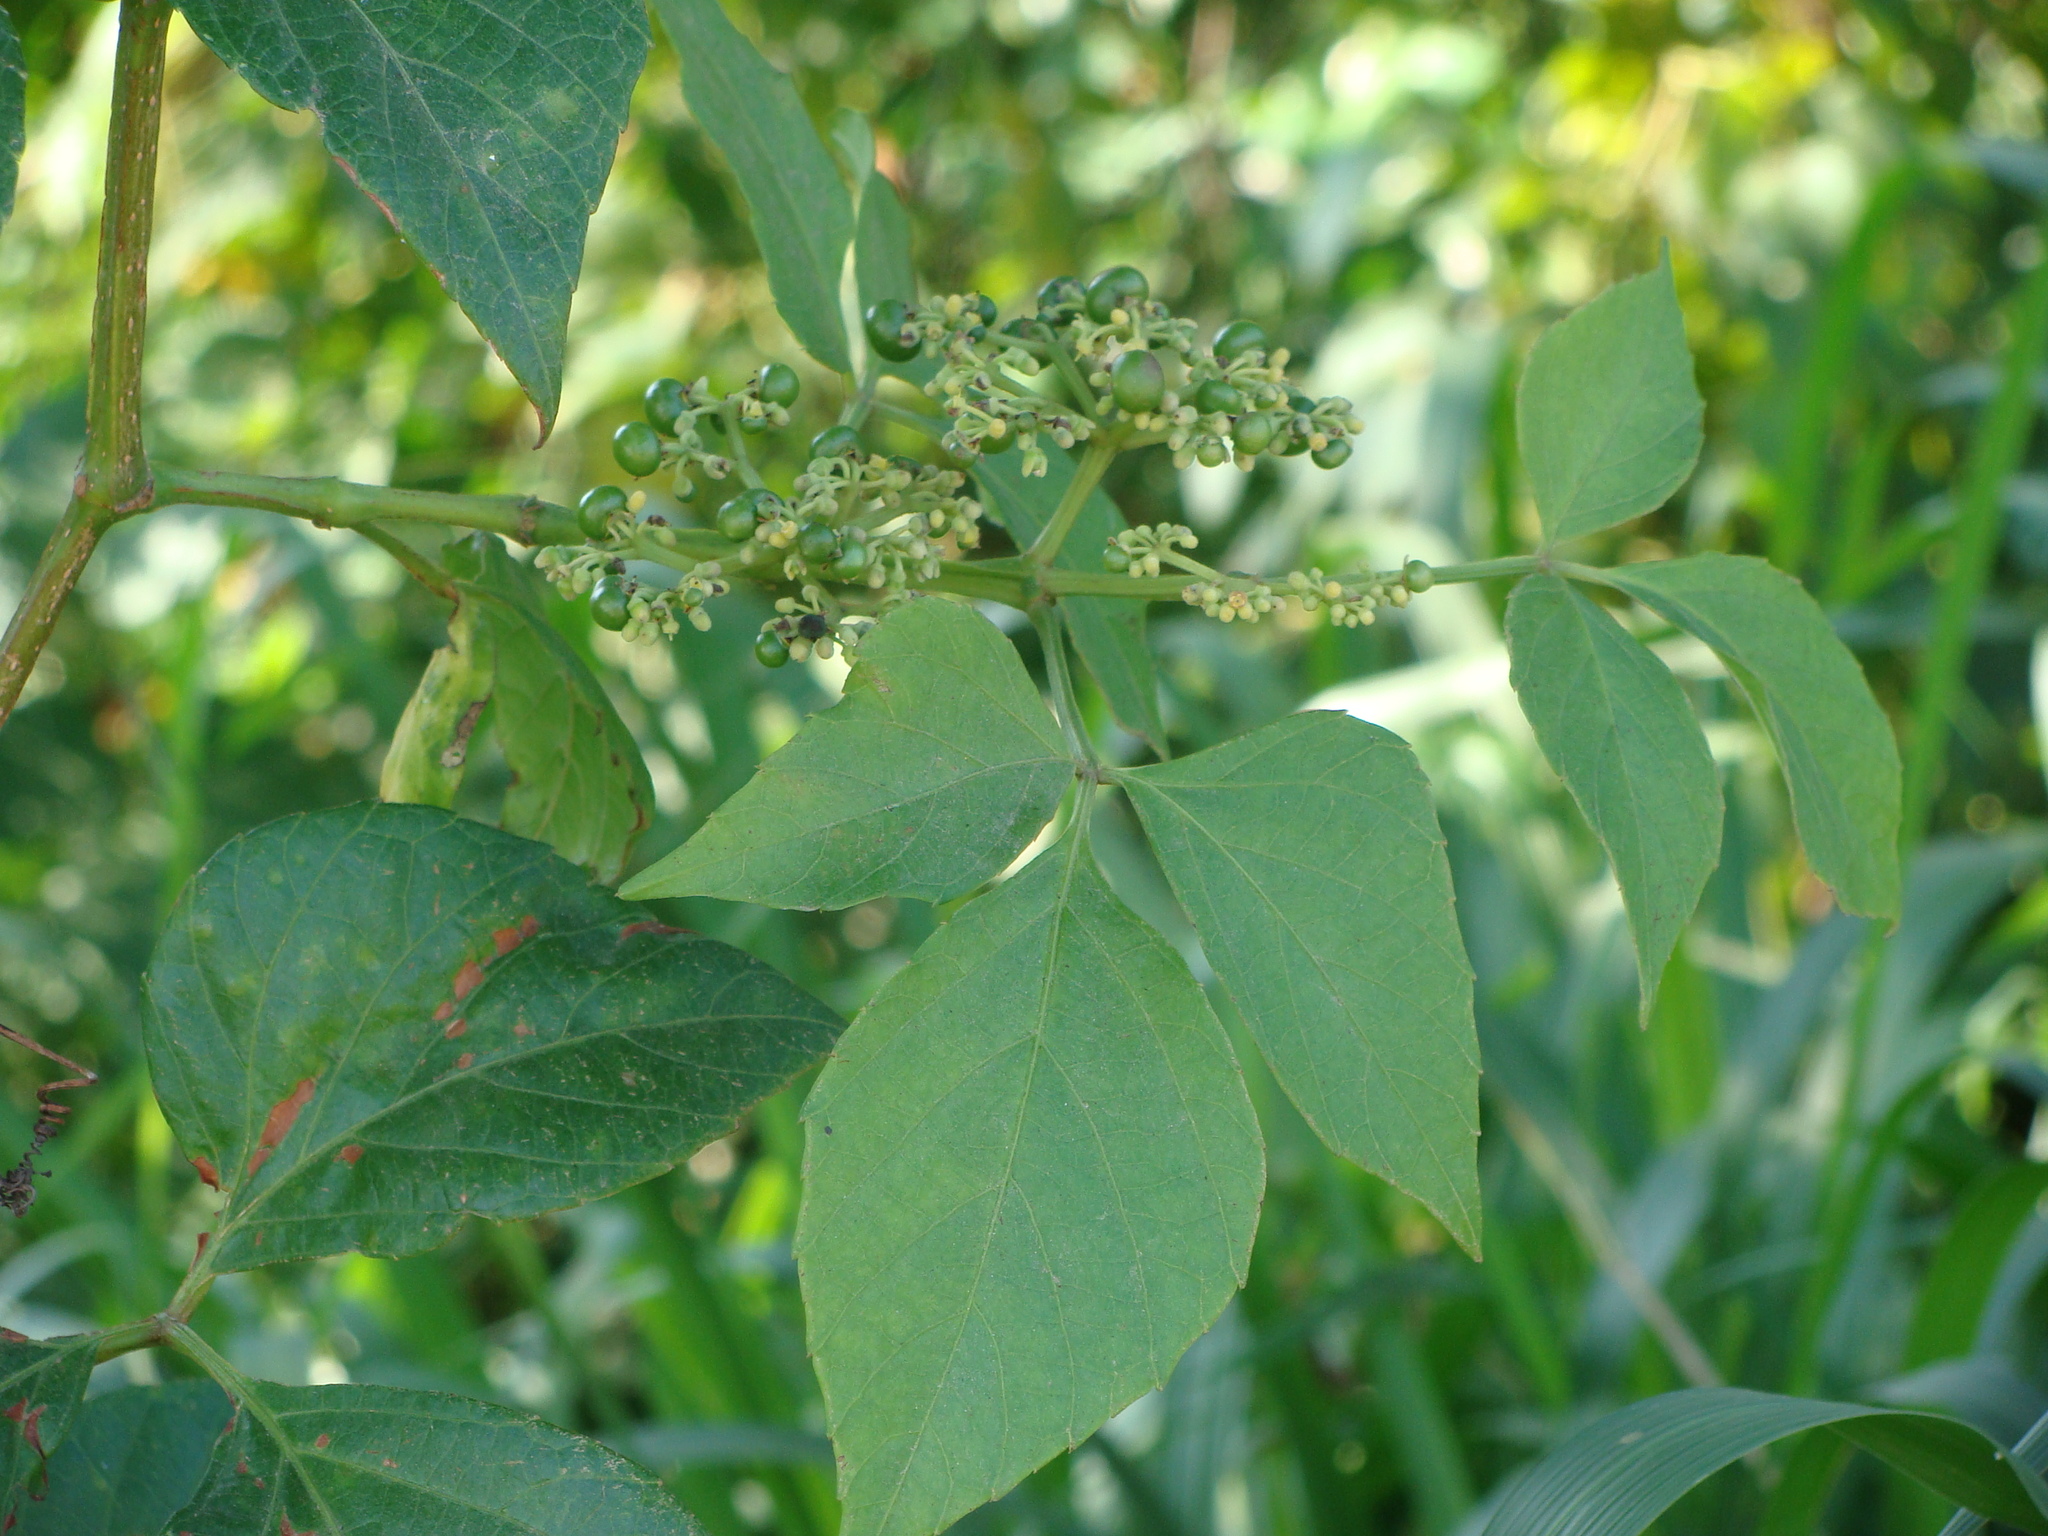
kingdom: Plantae
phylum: Tracheophyta
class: Magnoliopsida
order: Vitales
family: Vitaceae
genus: Cissus
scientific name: Cissus microcarpa
